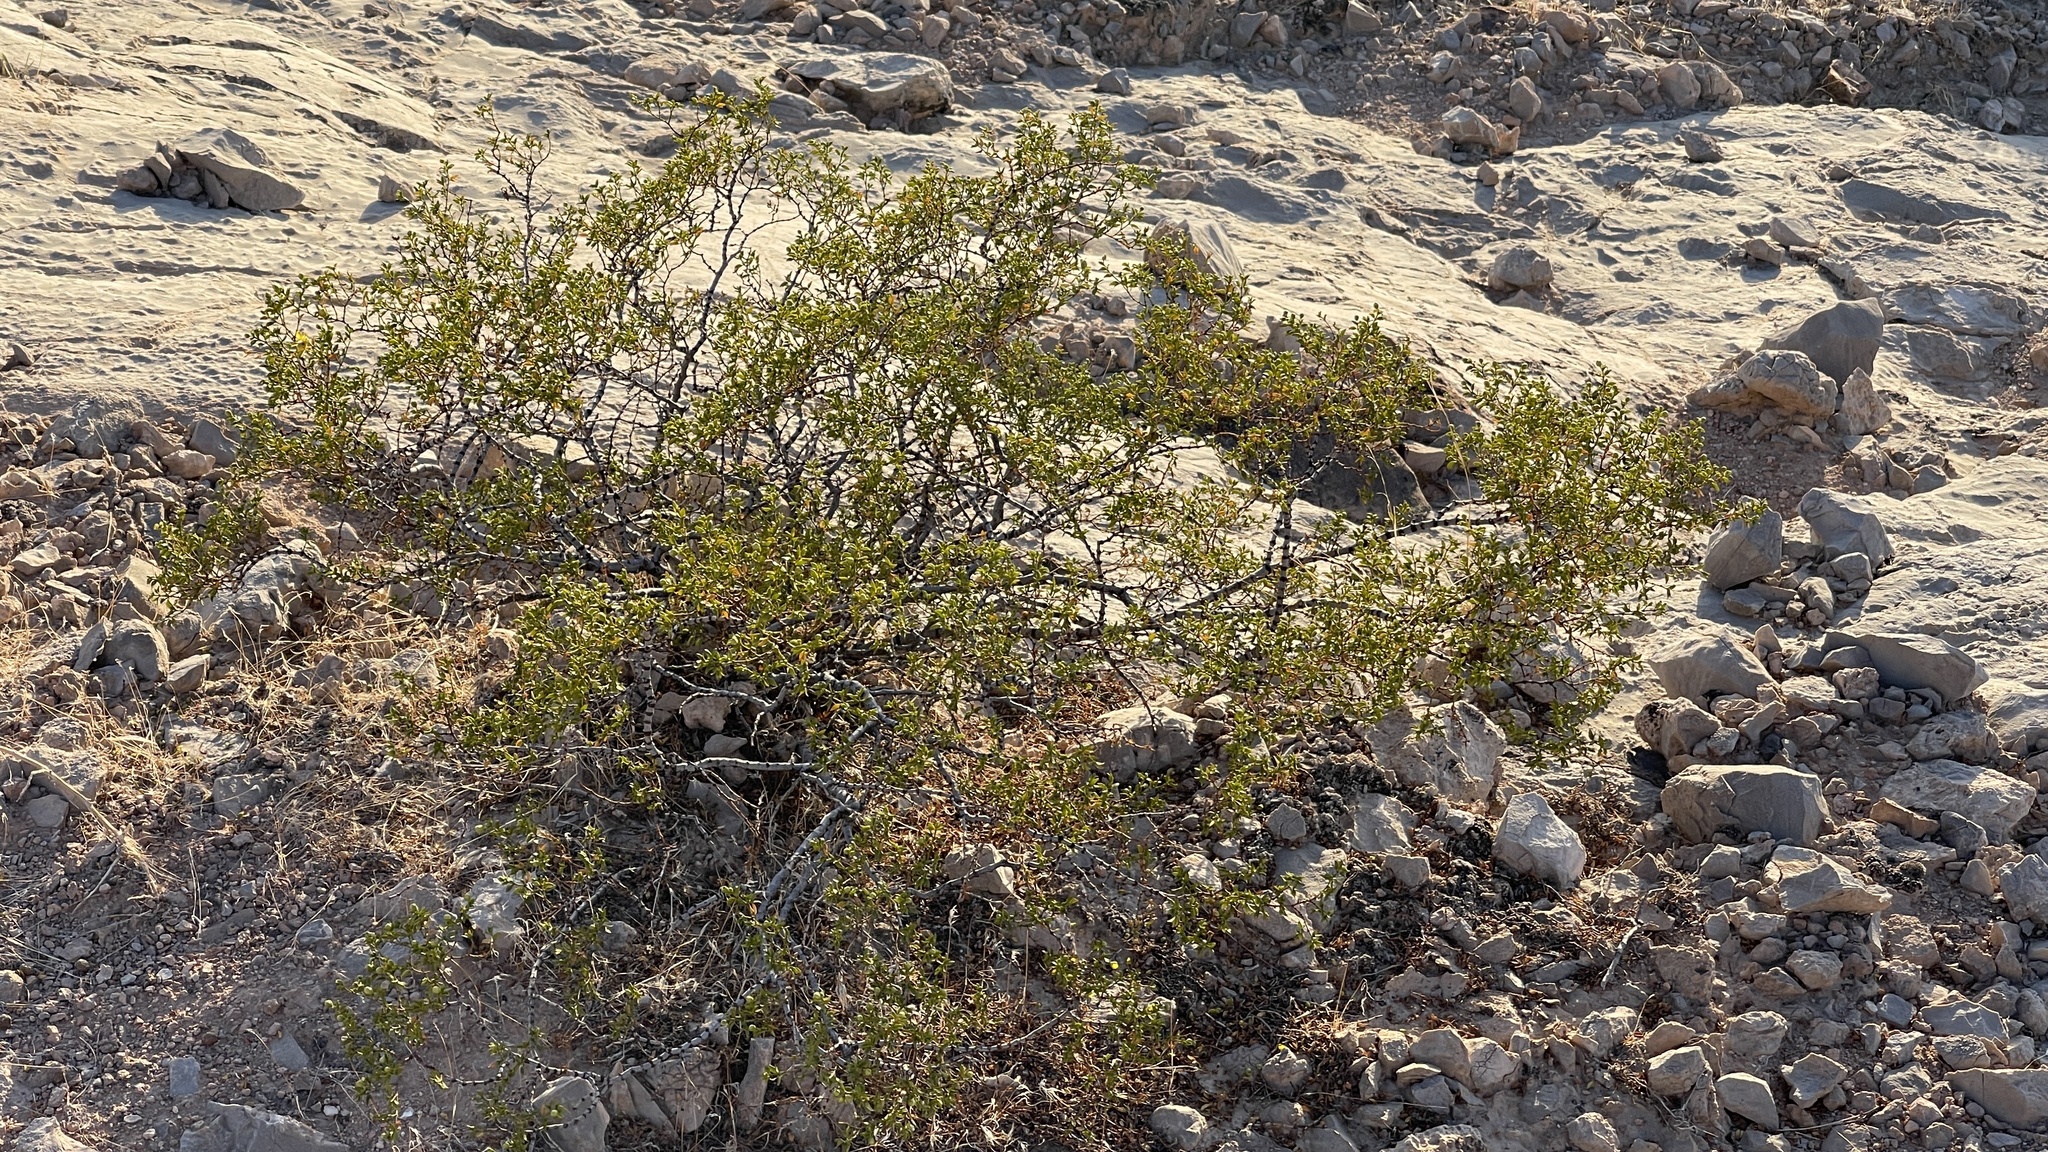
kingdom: Plantae
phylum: Tracheophyta
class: Magnoliopsida
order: Zygophyllales
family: Zygophyllaceae
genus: Larrea
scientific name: Larrea tridentata
